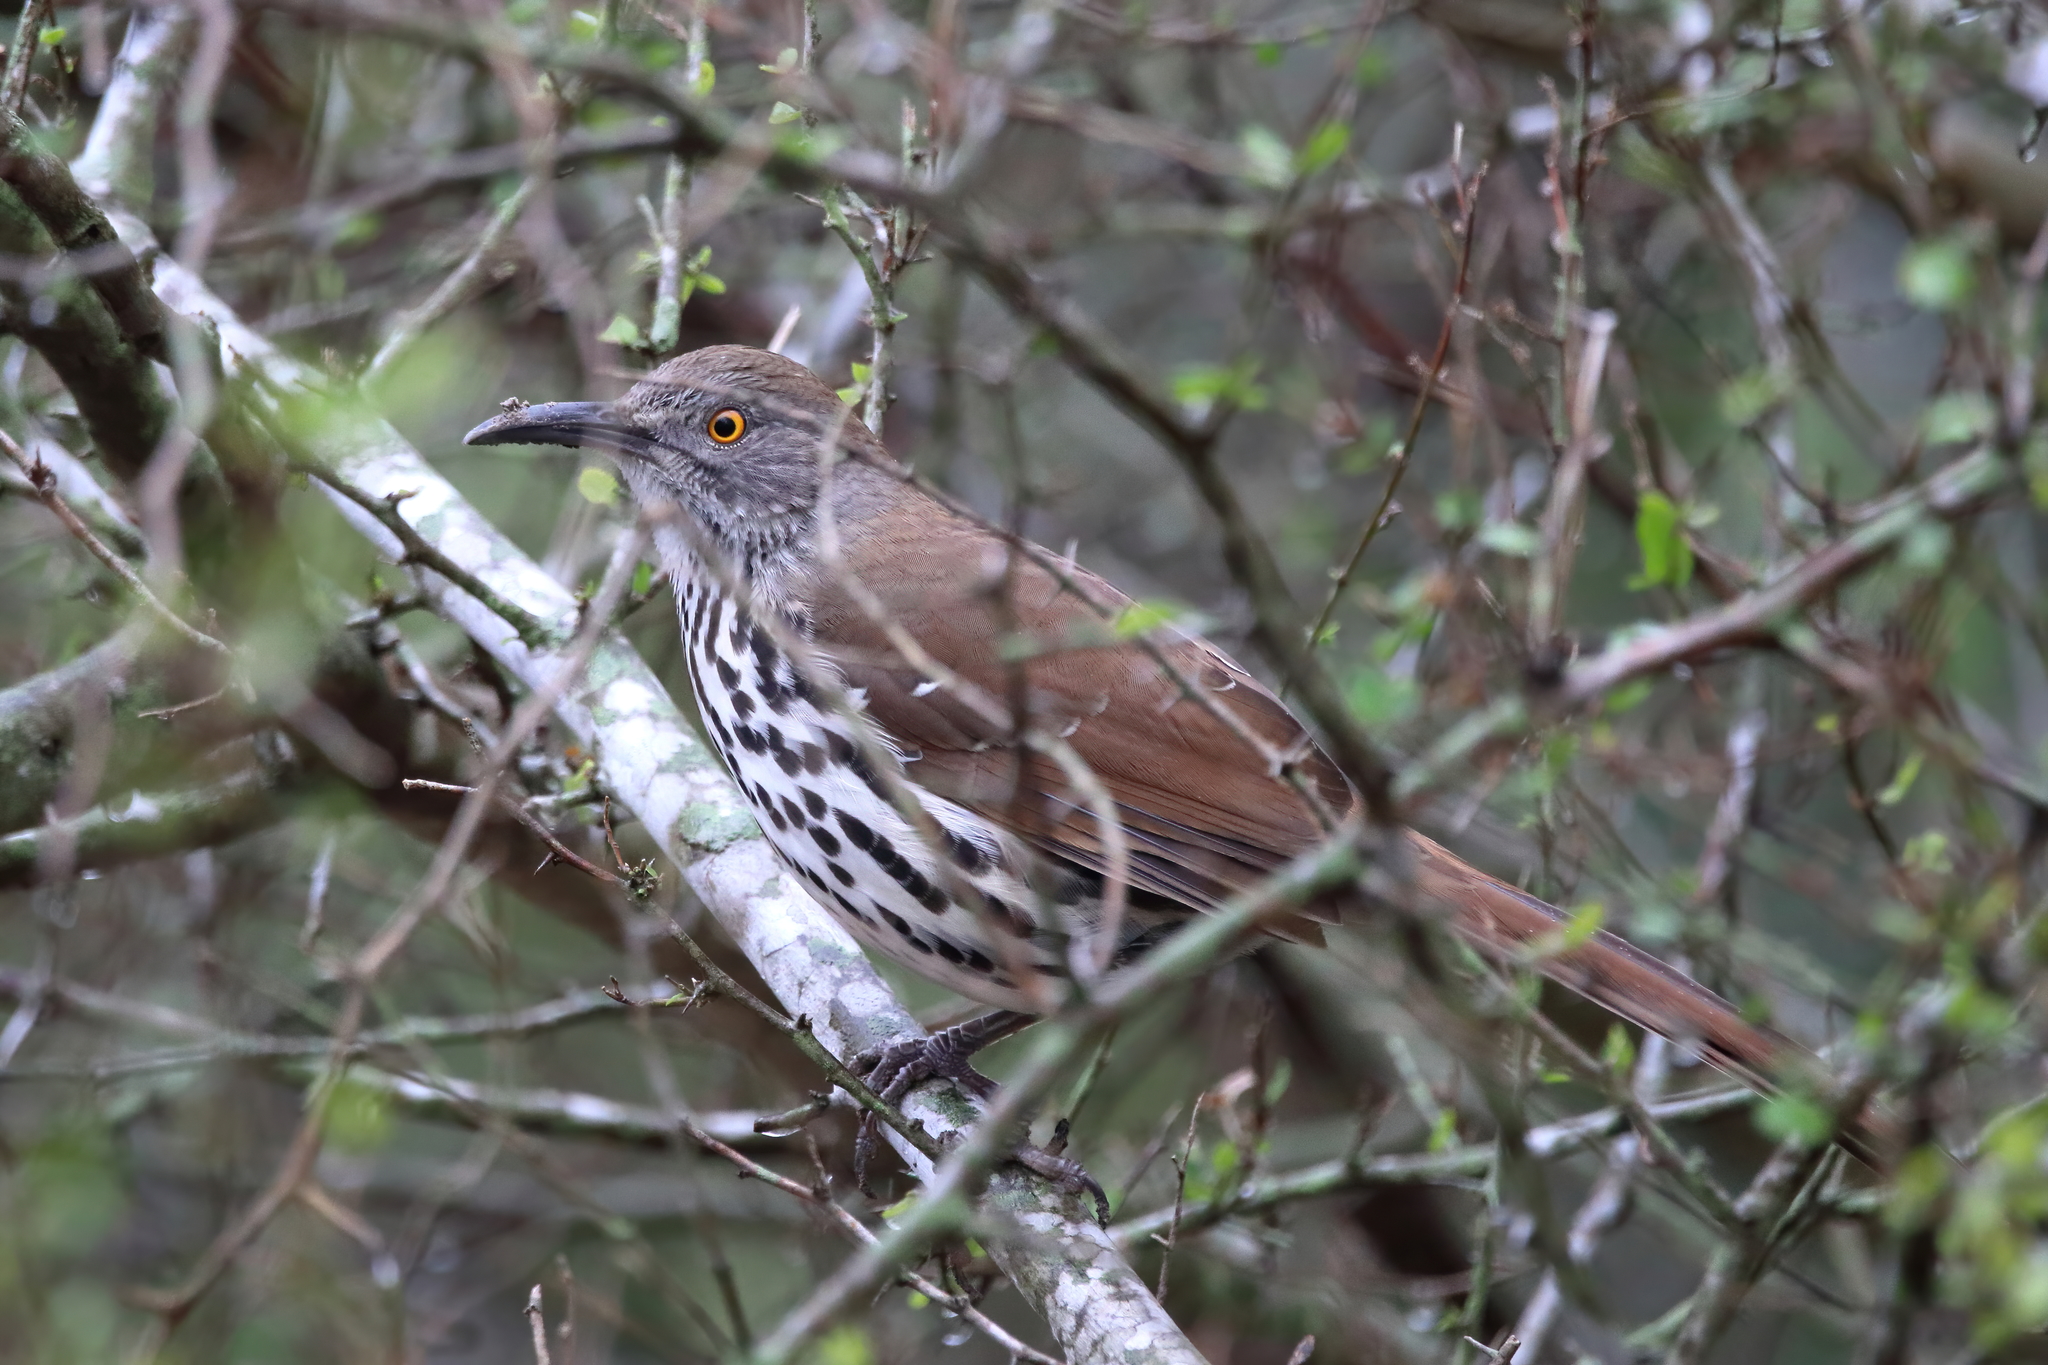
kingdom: Animalia
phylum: Chordata
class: Aves
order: Passeriformes
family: Mimidae
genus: Toxostoma
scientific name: Toxostoma longirostre
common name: Long-billed thrasher
